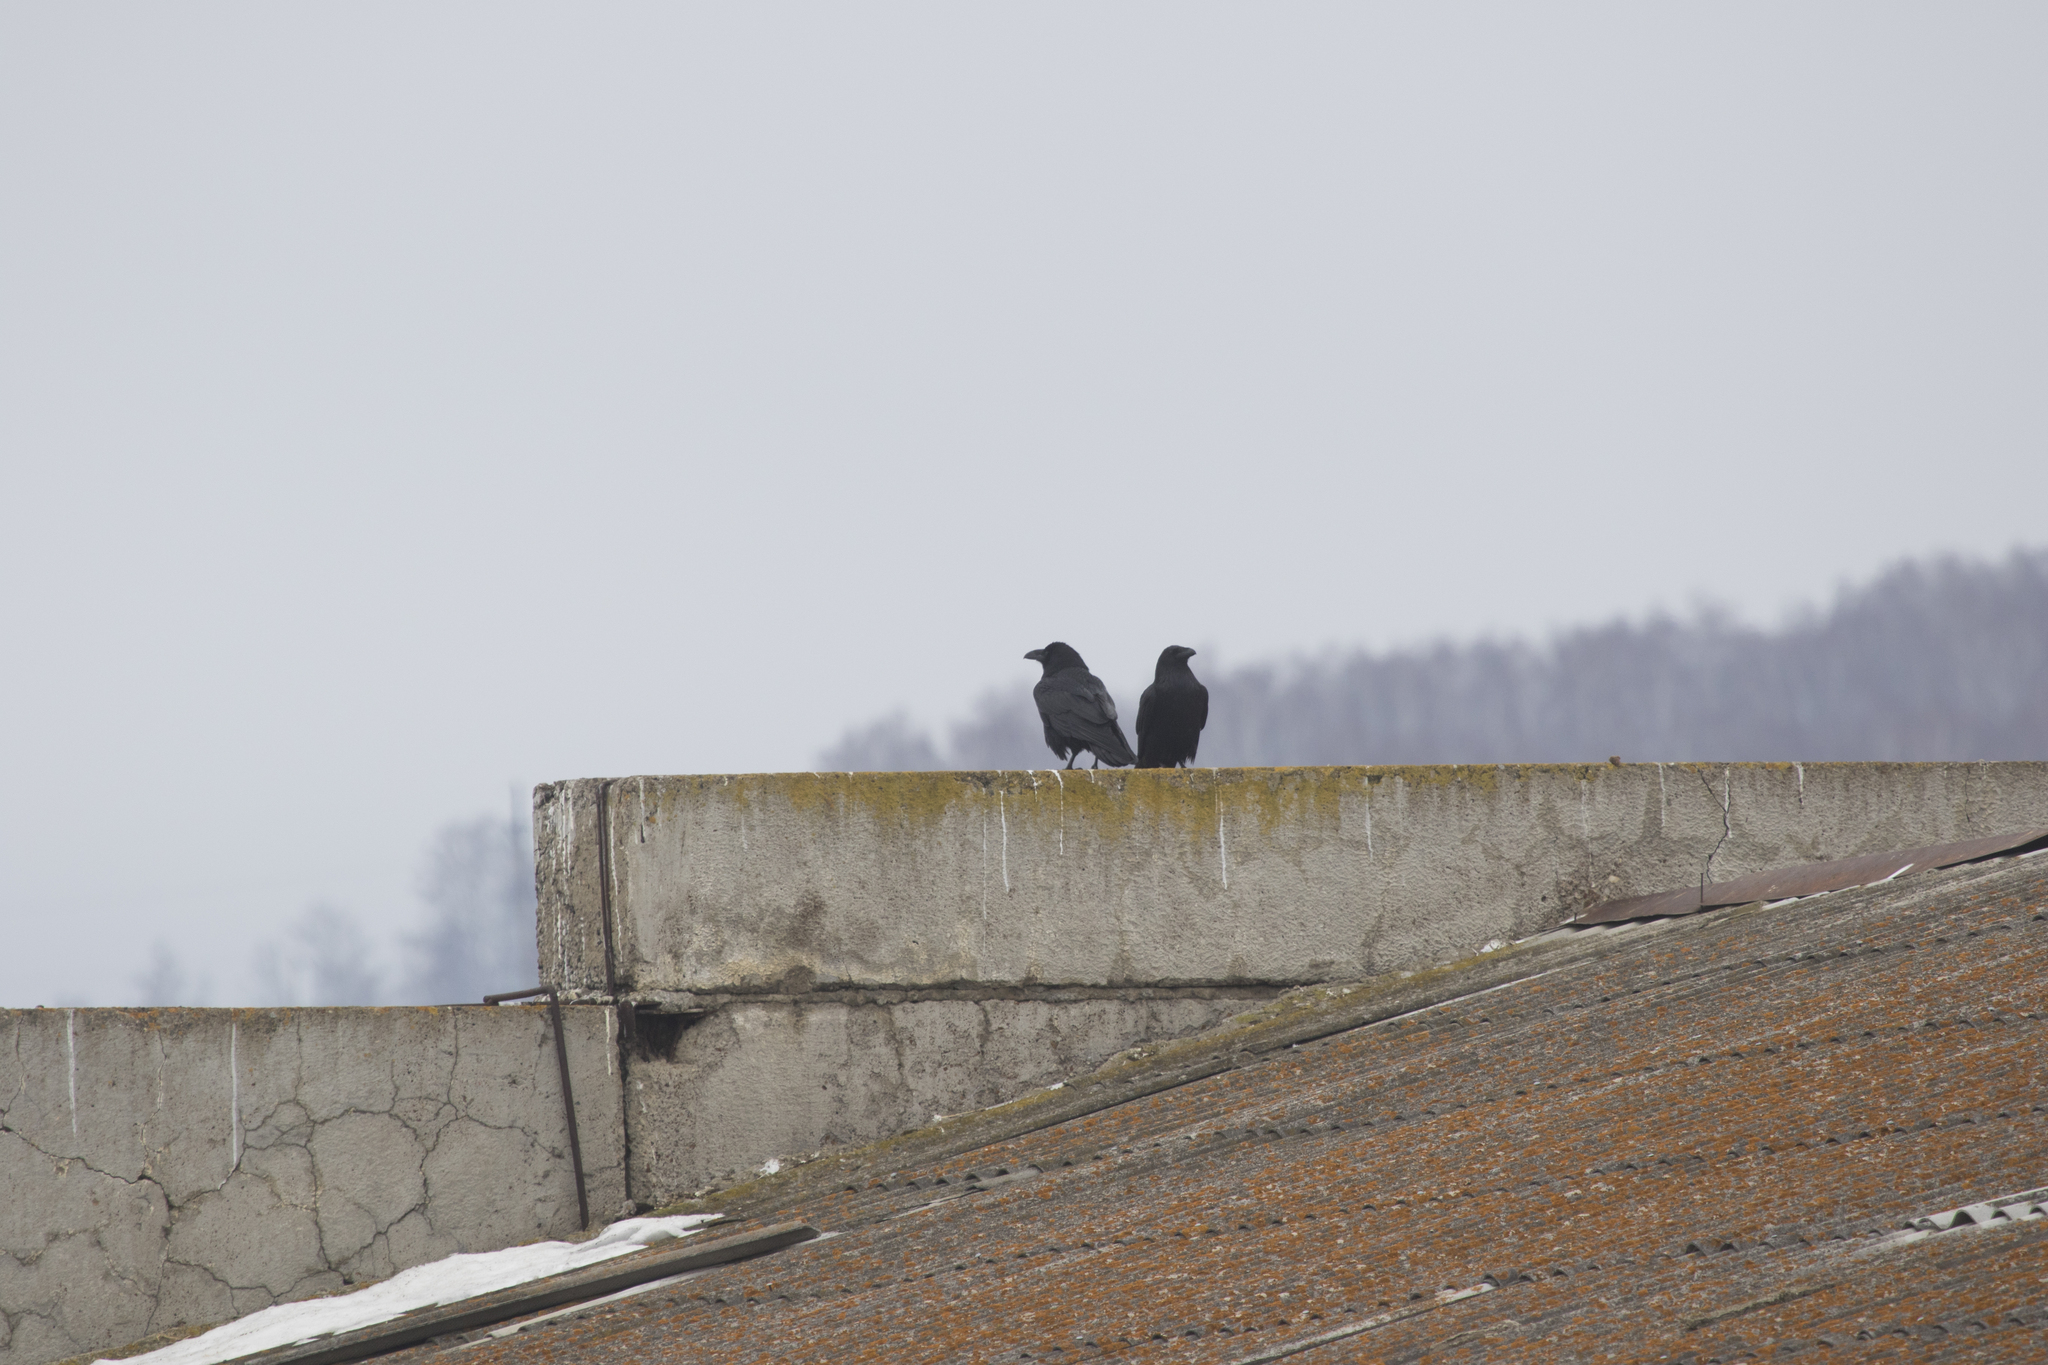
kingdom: Animalia
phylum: Chordata
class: Aves
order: Passeriformes
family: Corvidae
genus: Corvus
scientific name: Corvus corax
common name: Common raven
